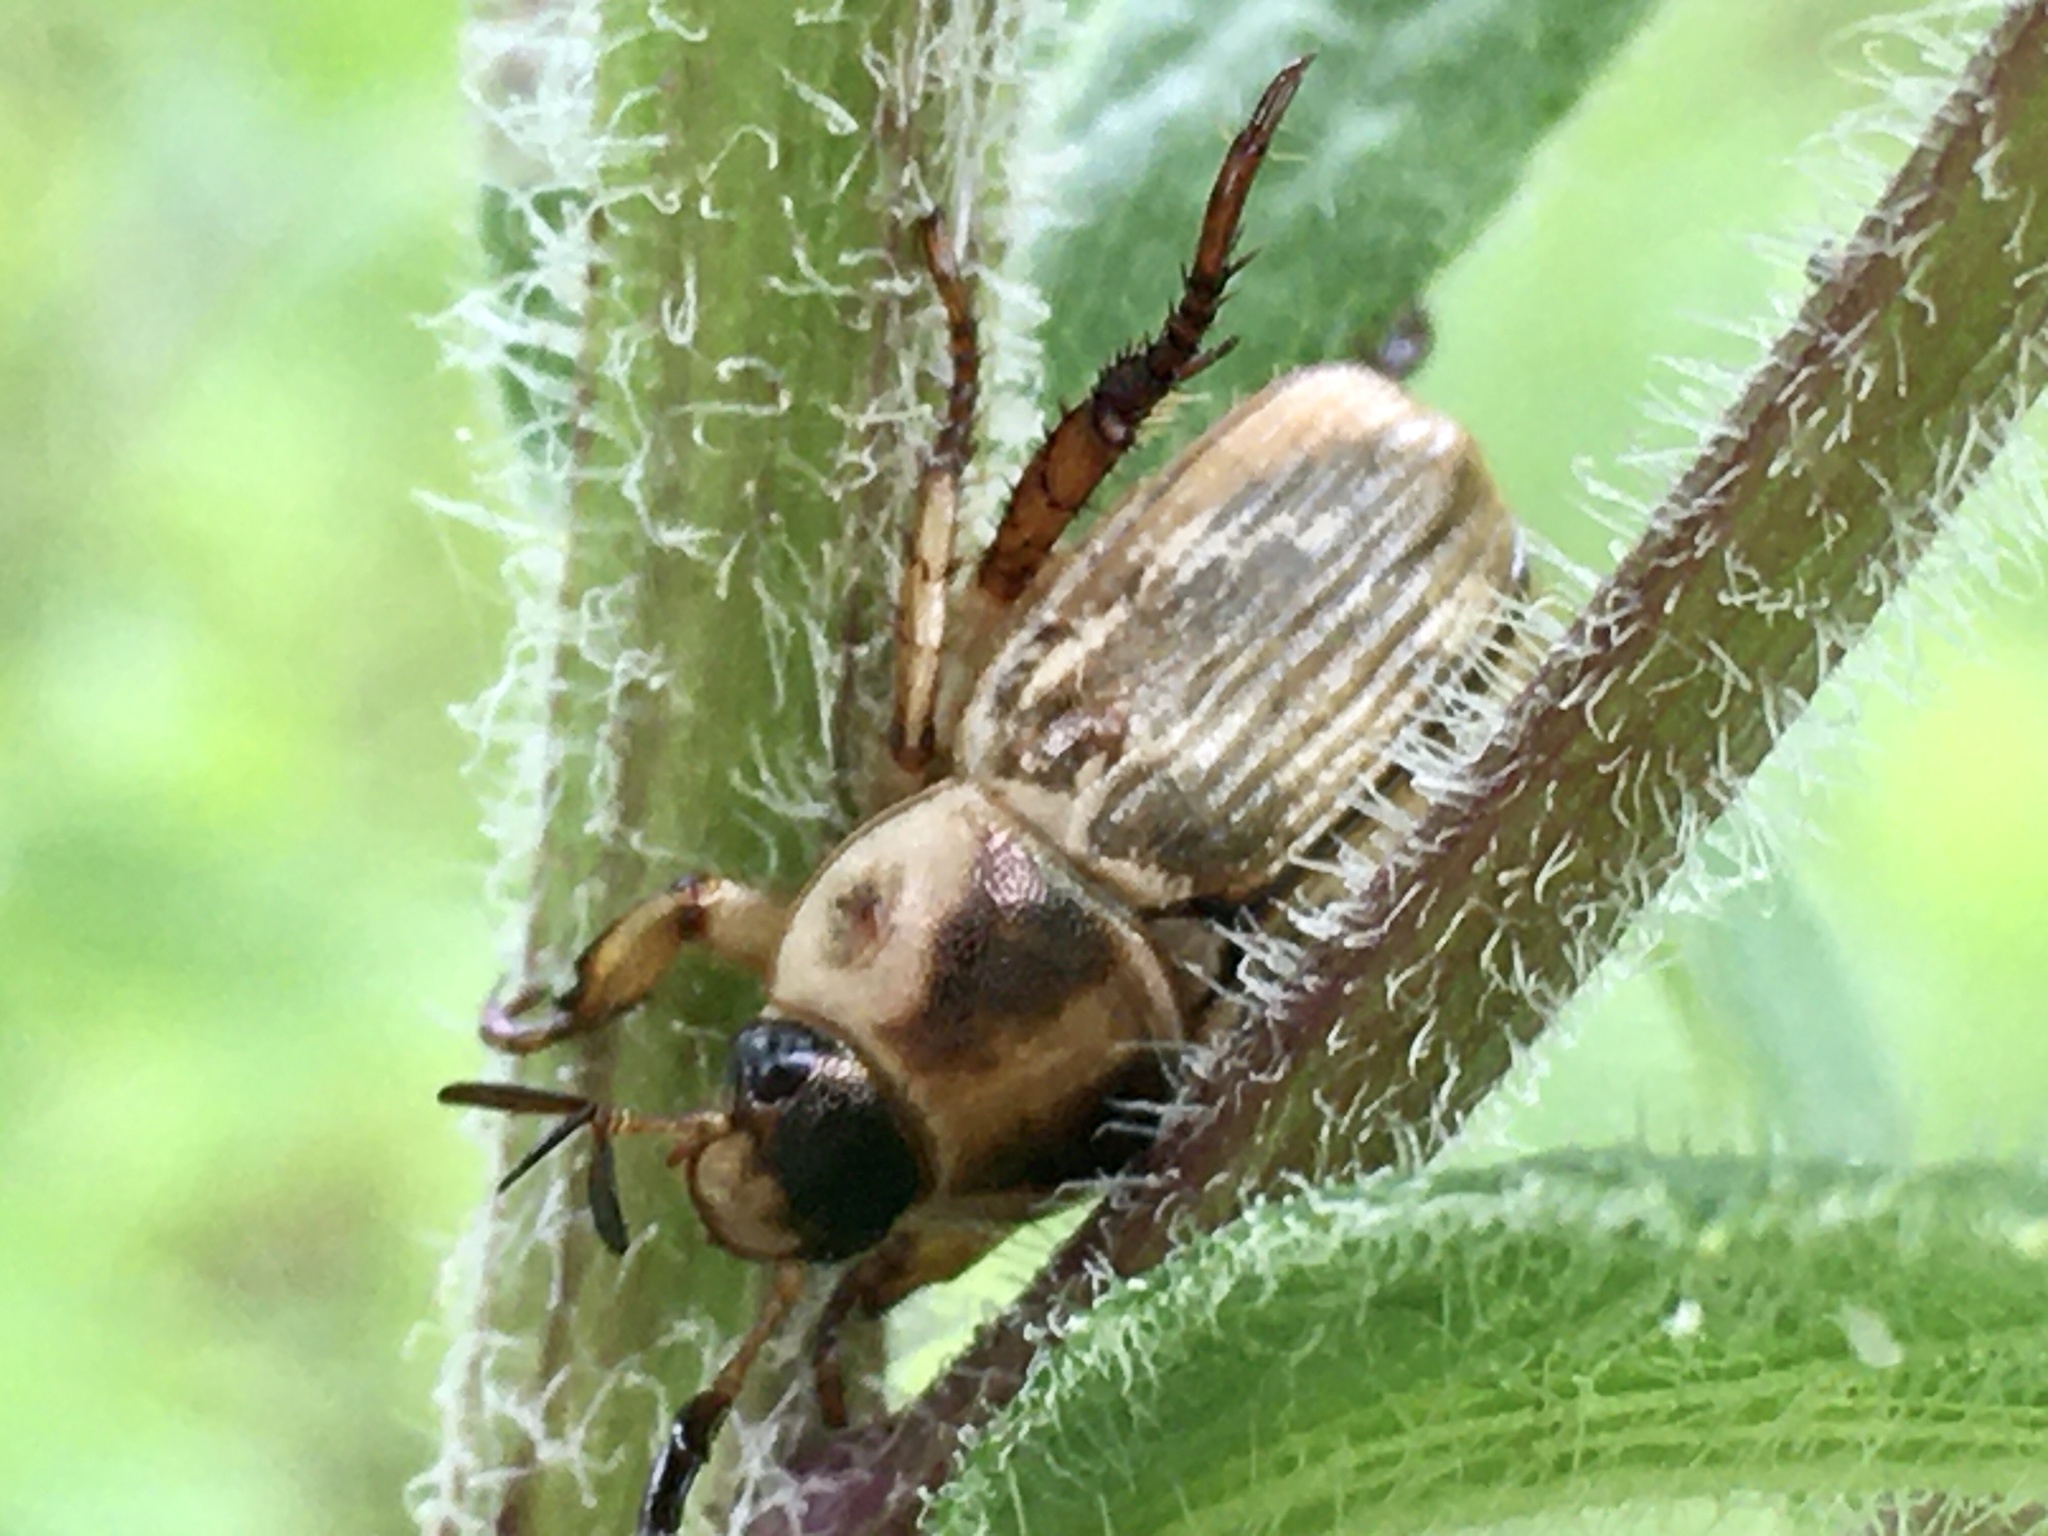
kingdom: Animalia
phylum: Arthropoda
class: Insecta
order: Coleoptera
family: Scarabaeidae
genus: Exomala
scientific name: Exomala orientalis
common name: Oriental beetle
